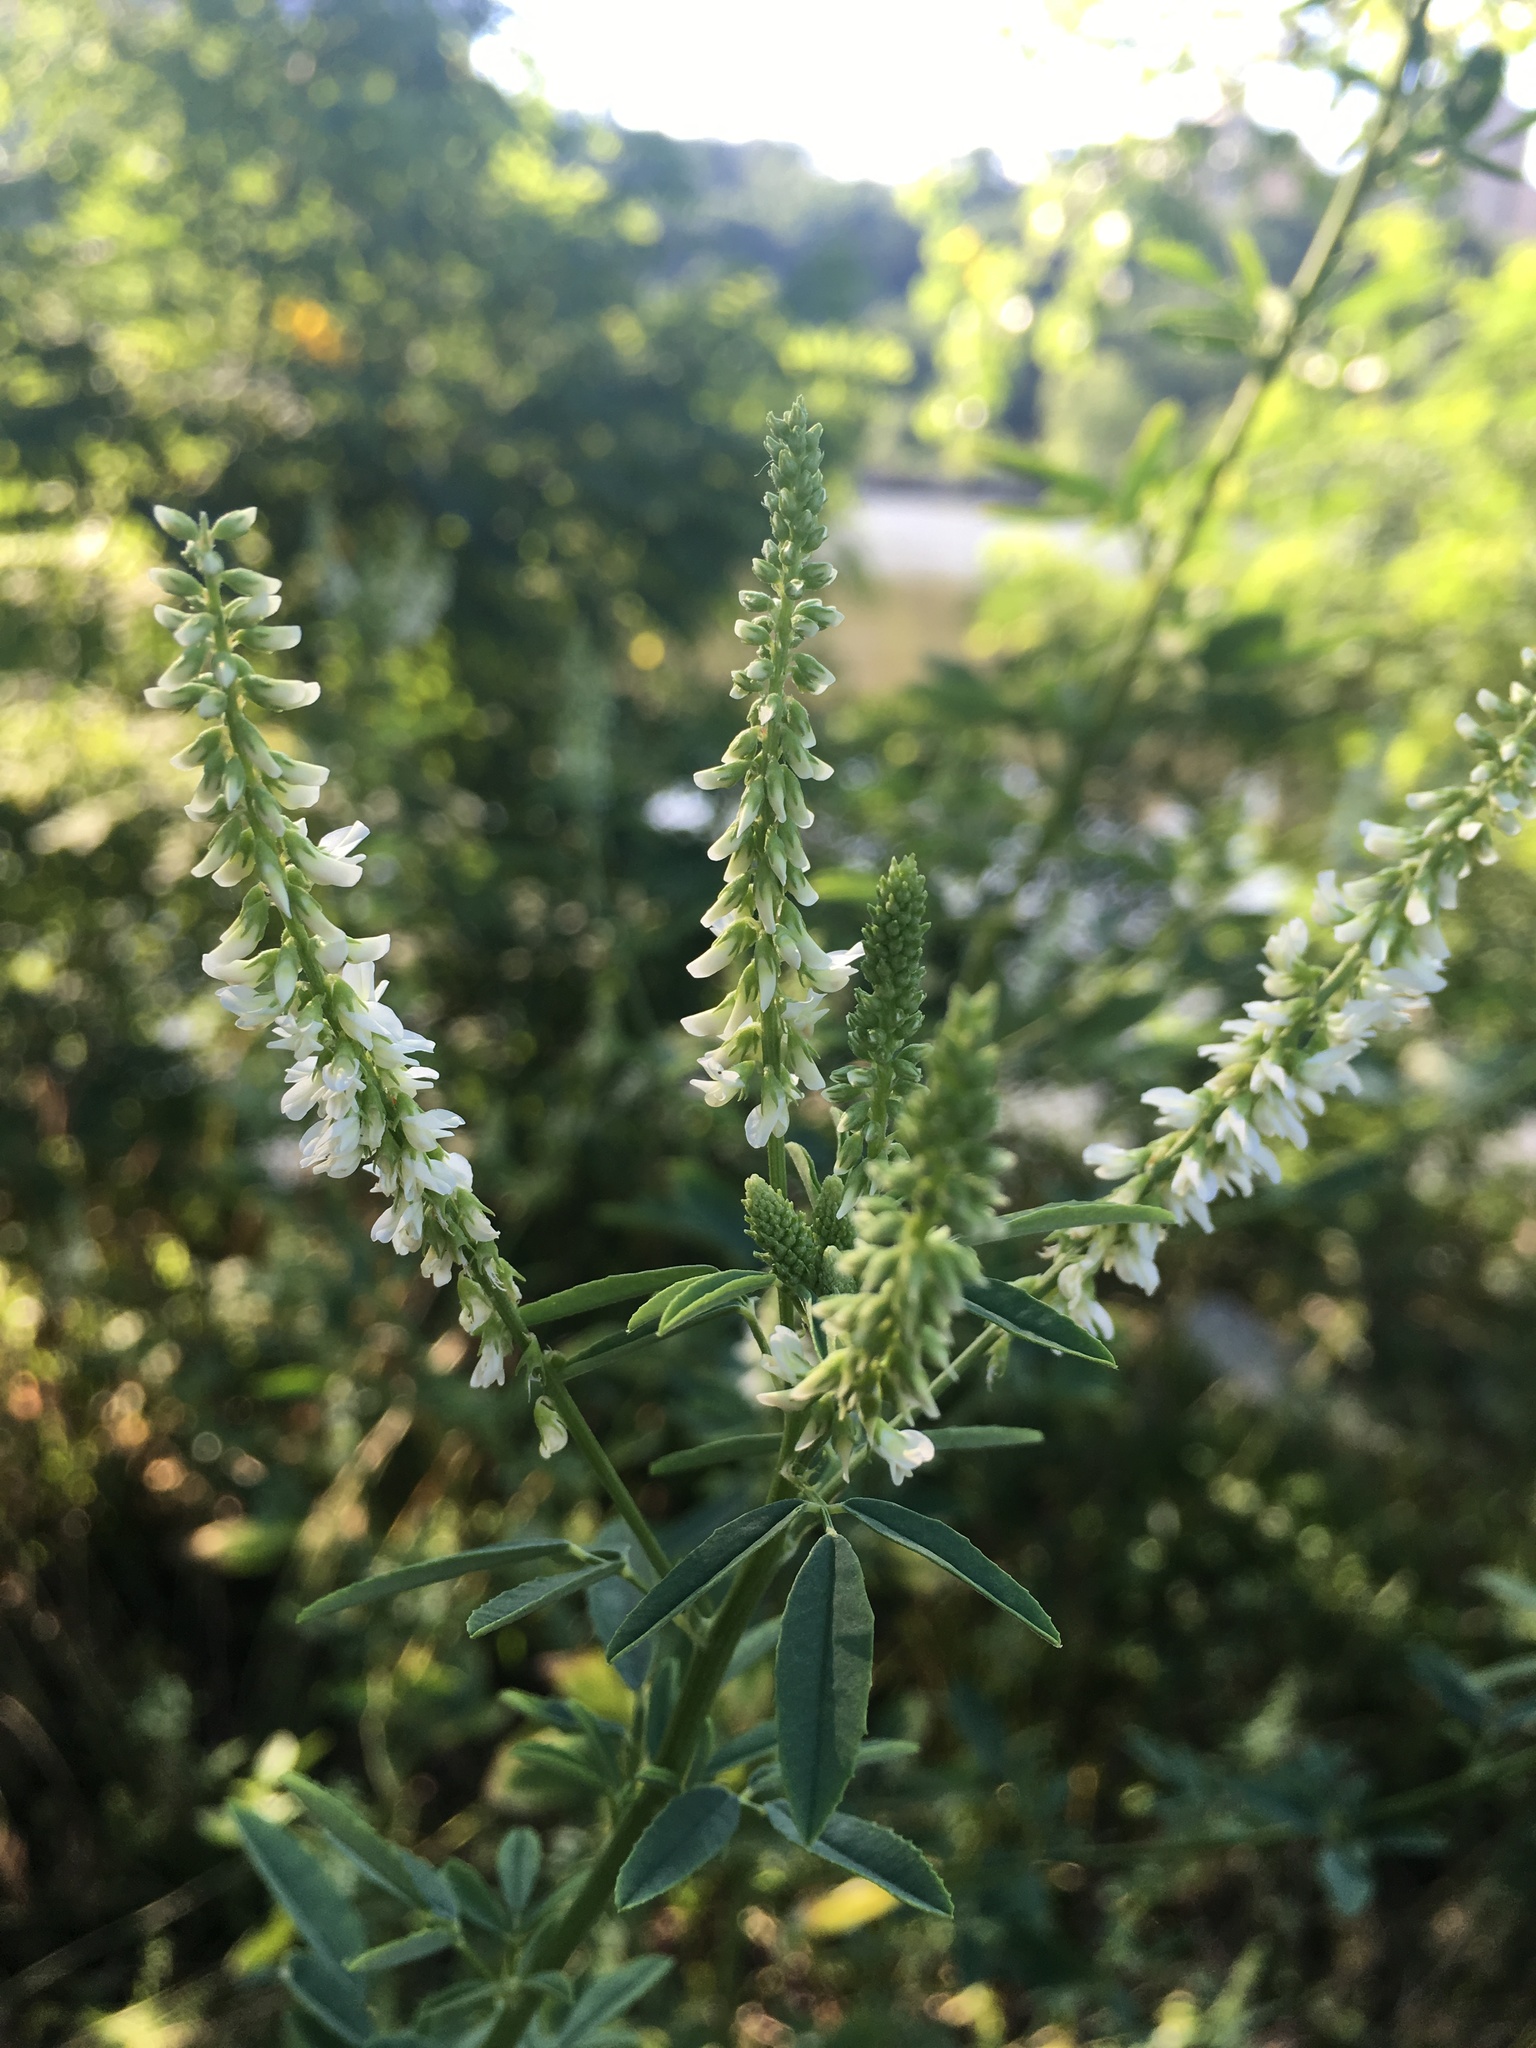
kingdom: Plantae
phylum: Tracheophyta
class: Magnoliopsida
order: Fabales
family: Fabaceae
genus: Melilotus
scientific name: Melilotus albus
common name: White melilot
